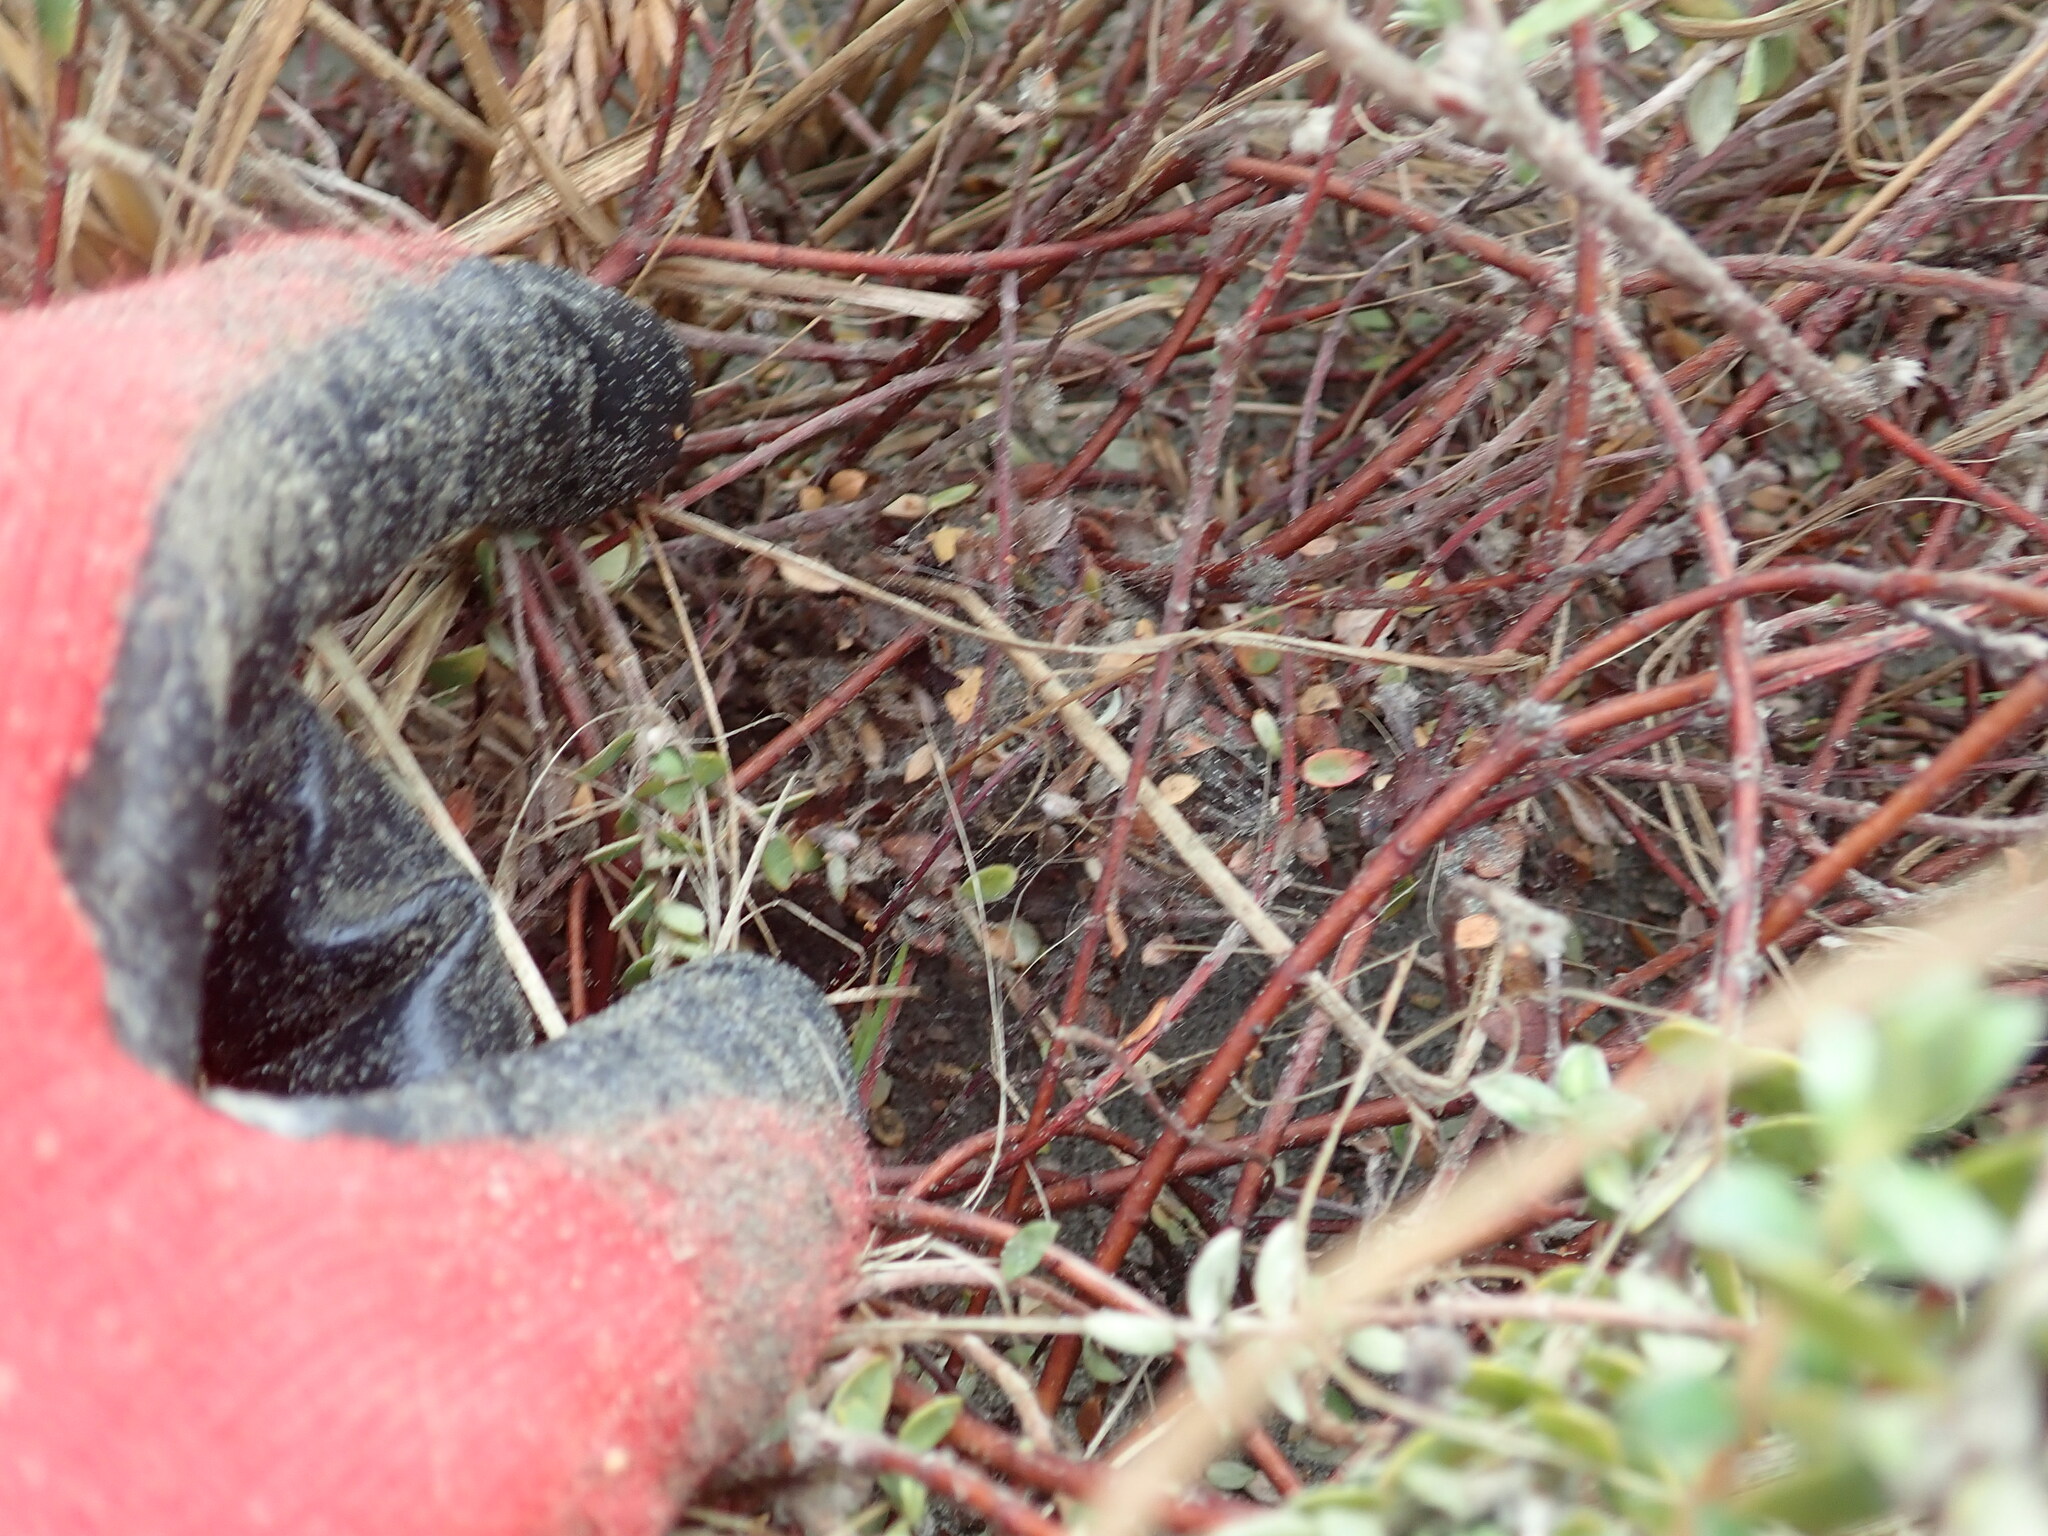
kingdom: Animalia
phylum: Arthropoda
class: Arachnida
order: Araneae
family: Theridiidae
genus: Latrodectus
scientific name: Latrodectus katipo
